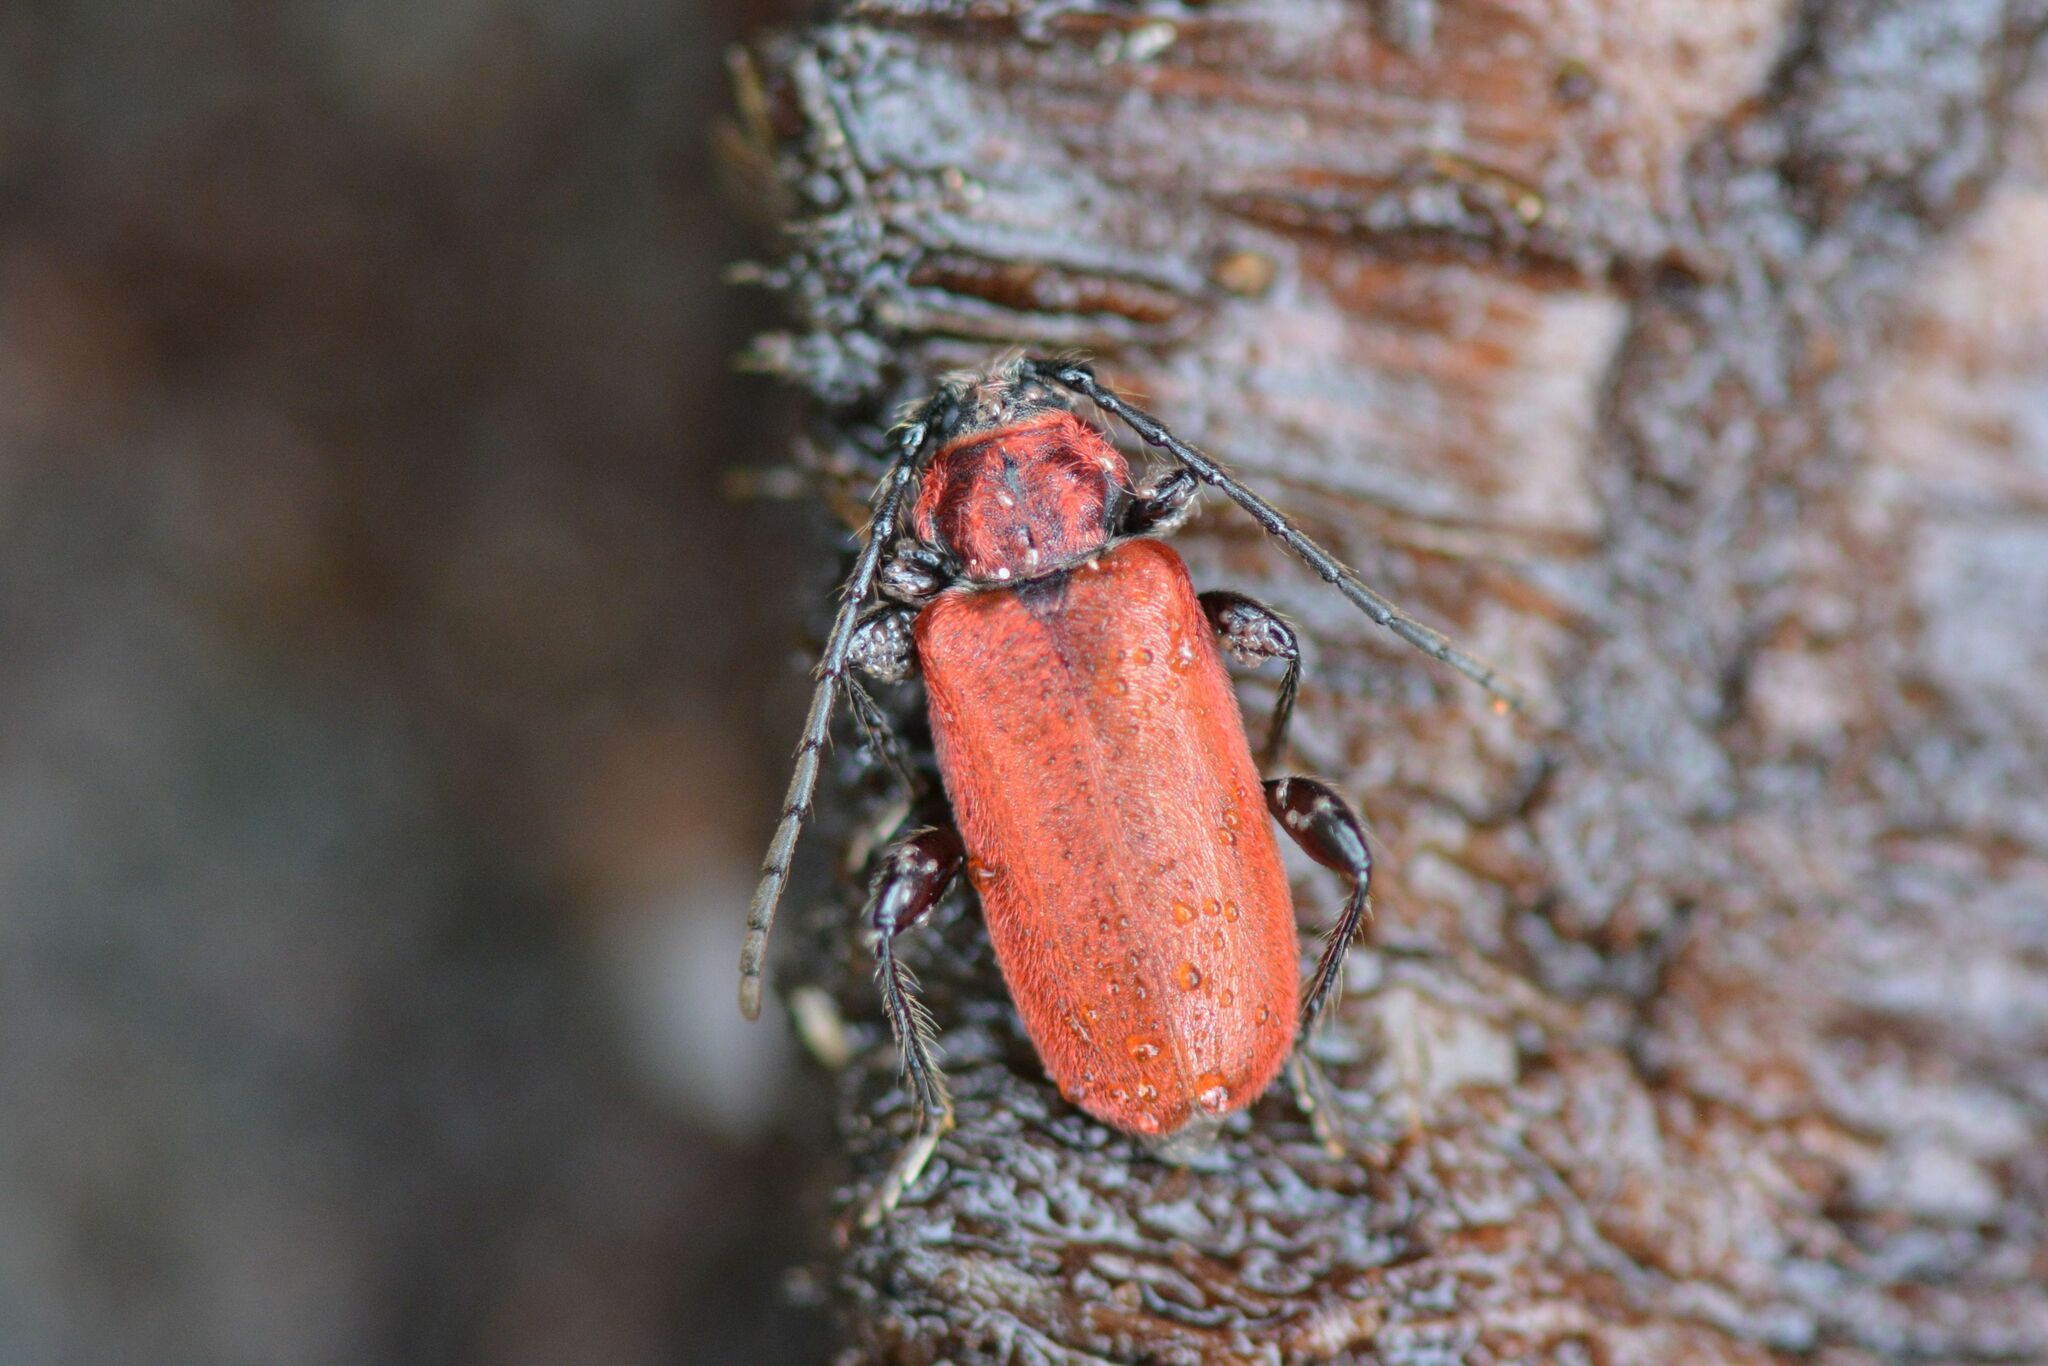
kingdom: Animalia
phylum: Arthropoda
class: Insecta
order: Coleoptera
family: Cerambycidae
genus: Pyrrhidium
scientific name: Pyrrhidium sanguineum
